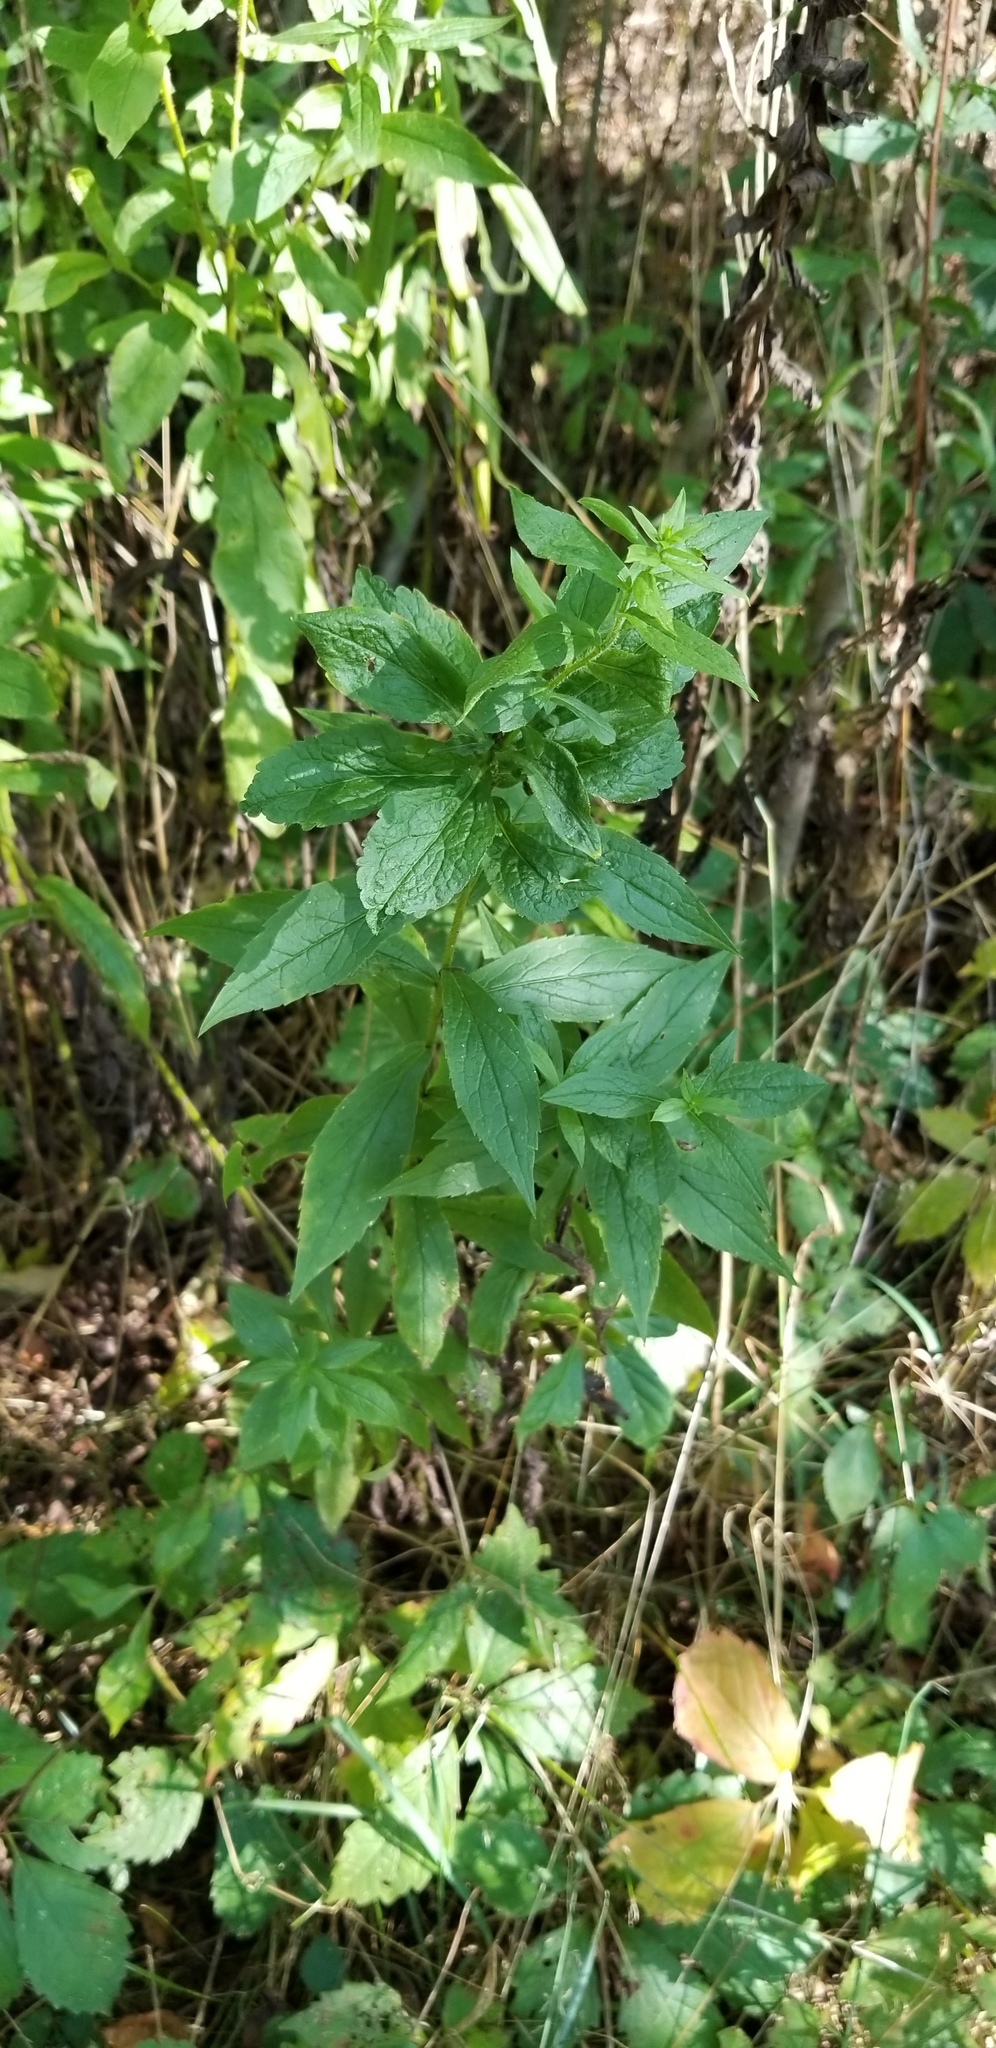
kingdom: Plantae
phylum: Tracheophyta
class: Magnoliopsida
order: Asterales
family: Asteraceae
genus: Solidago
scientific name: Solidago rugosa
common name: Rough-stemmed goldenrod
